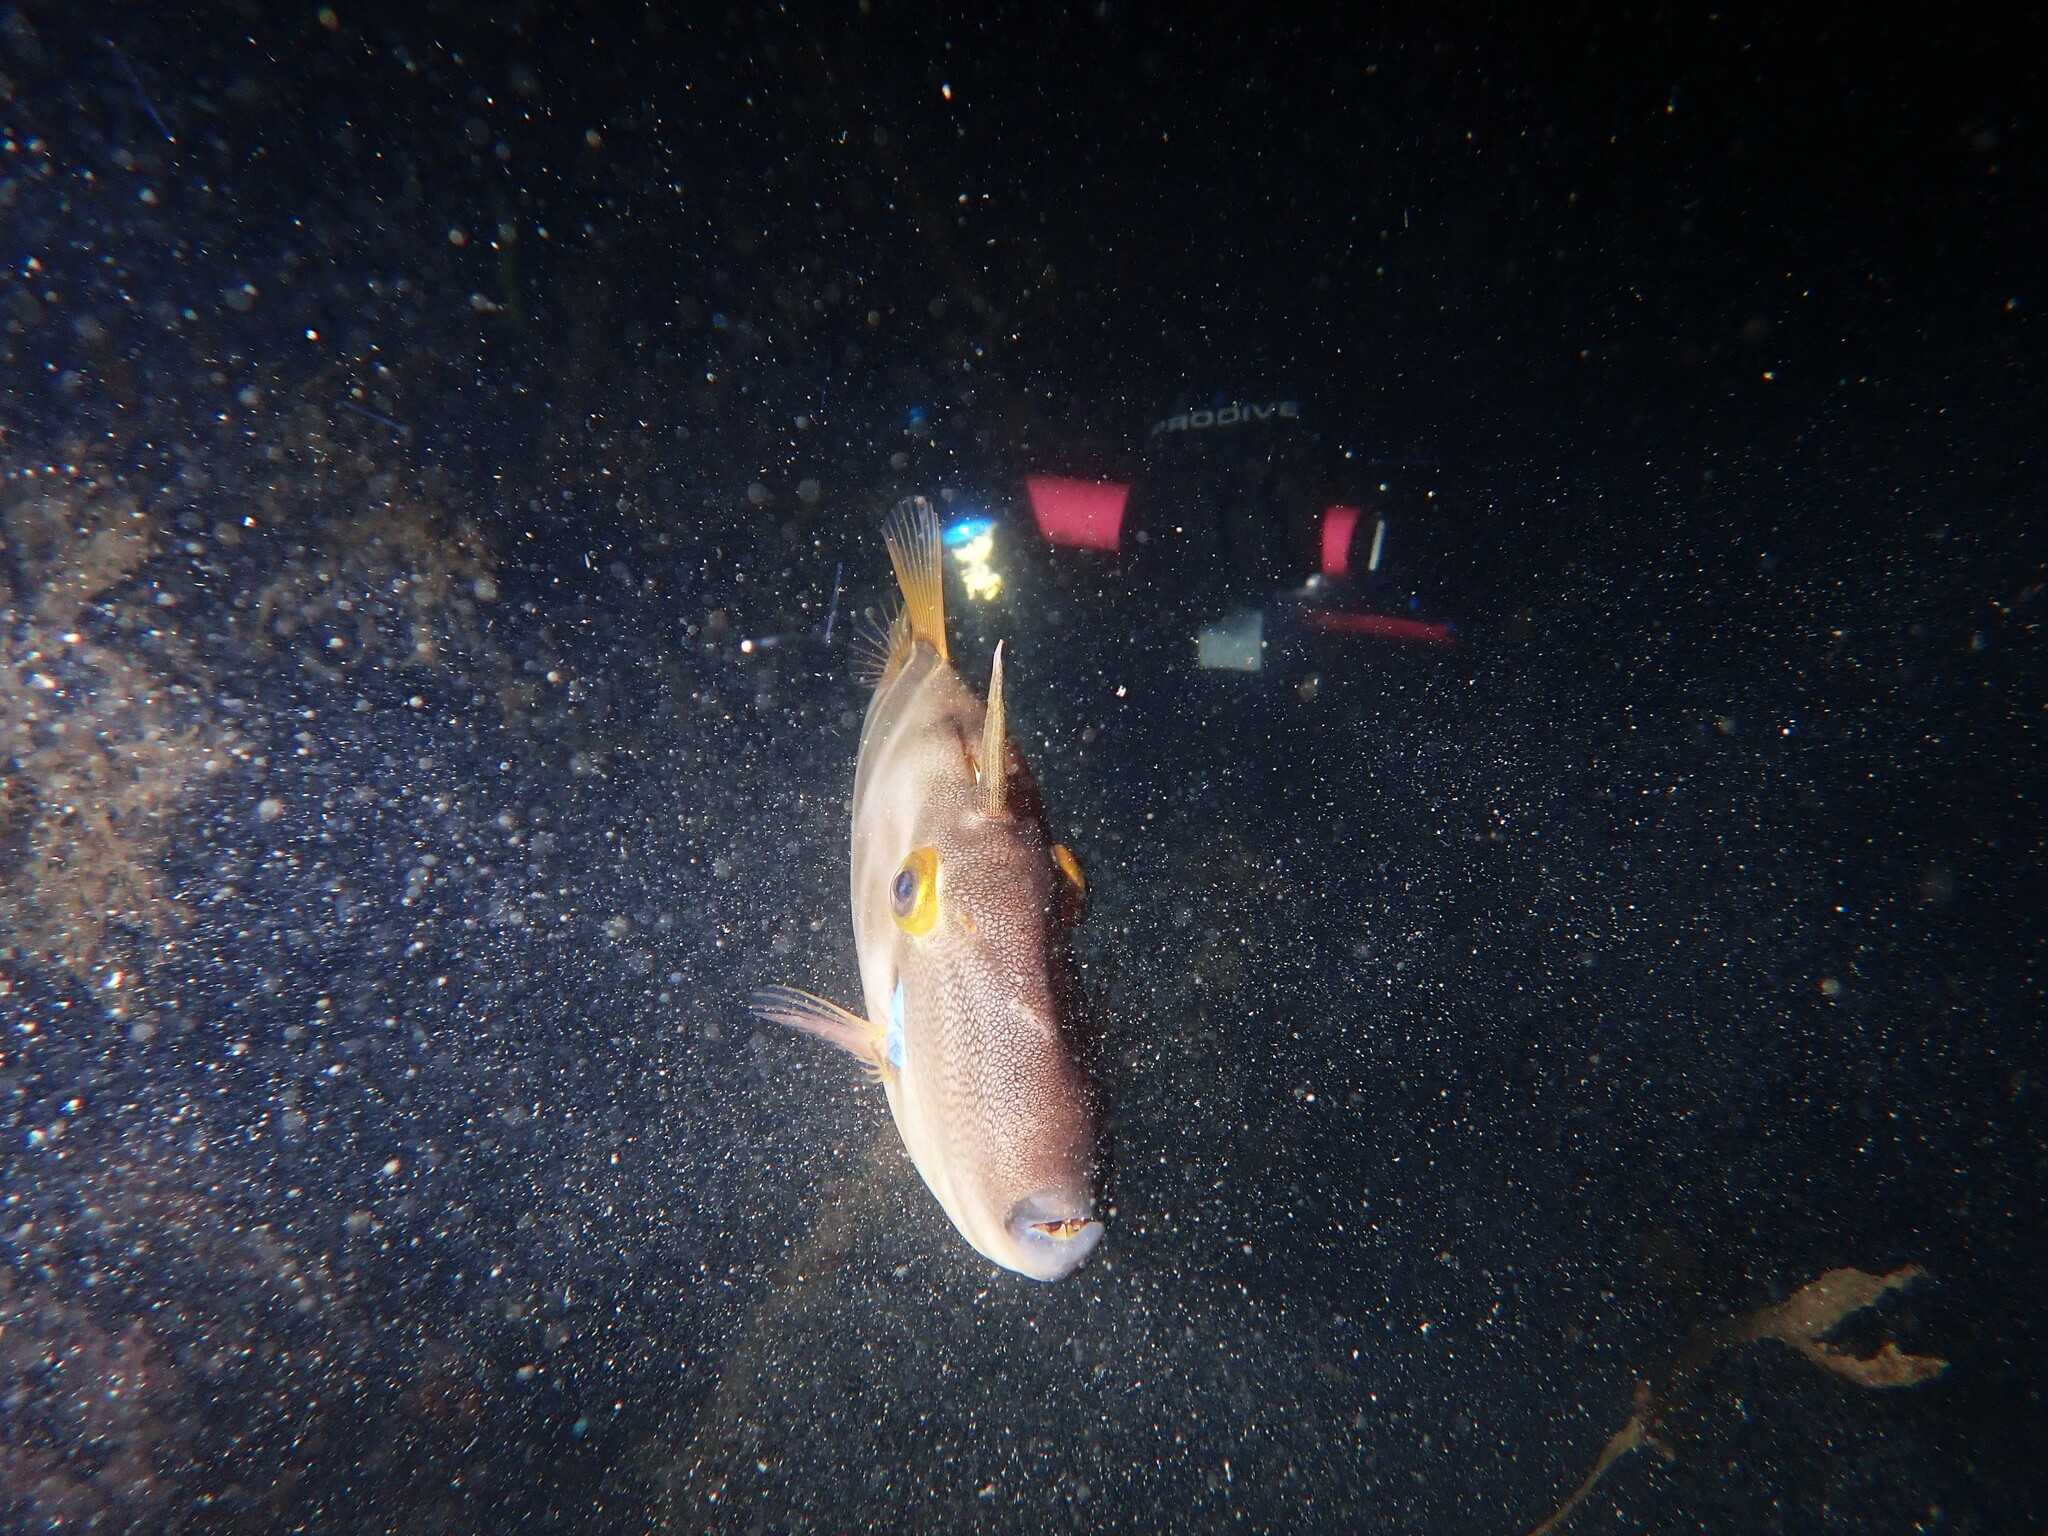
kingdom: Animalia
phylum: Chordata
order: Tetraodontiformes
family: Monacanthidae
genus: Meuschenia
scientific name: Meuschenia scaber
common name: Cosmopolitan leatherjacket
